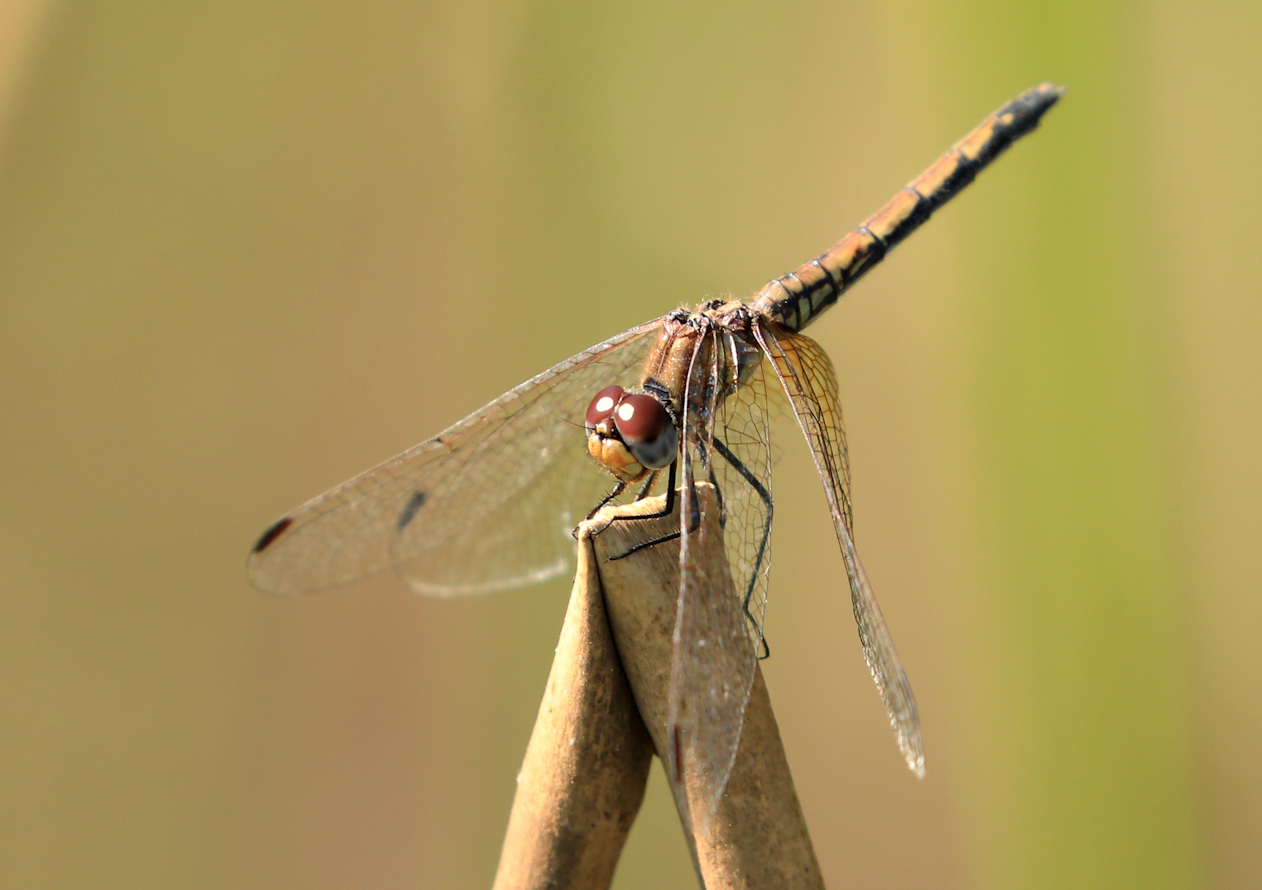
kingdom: Animalia
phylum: Arthropoda
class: Insecta
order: Odonata
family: Libellulidae
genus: Trithemis
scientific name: Trithemis arteriosa
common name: Red-veined dropwing
